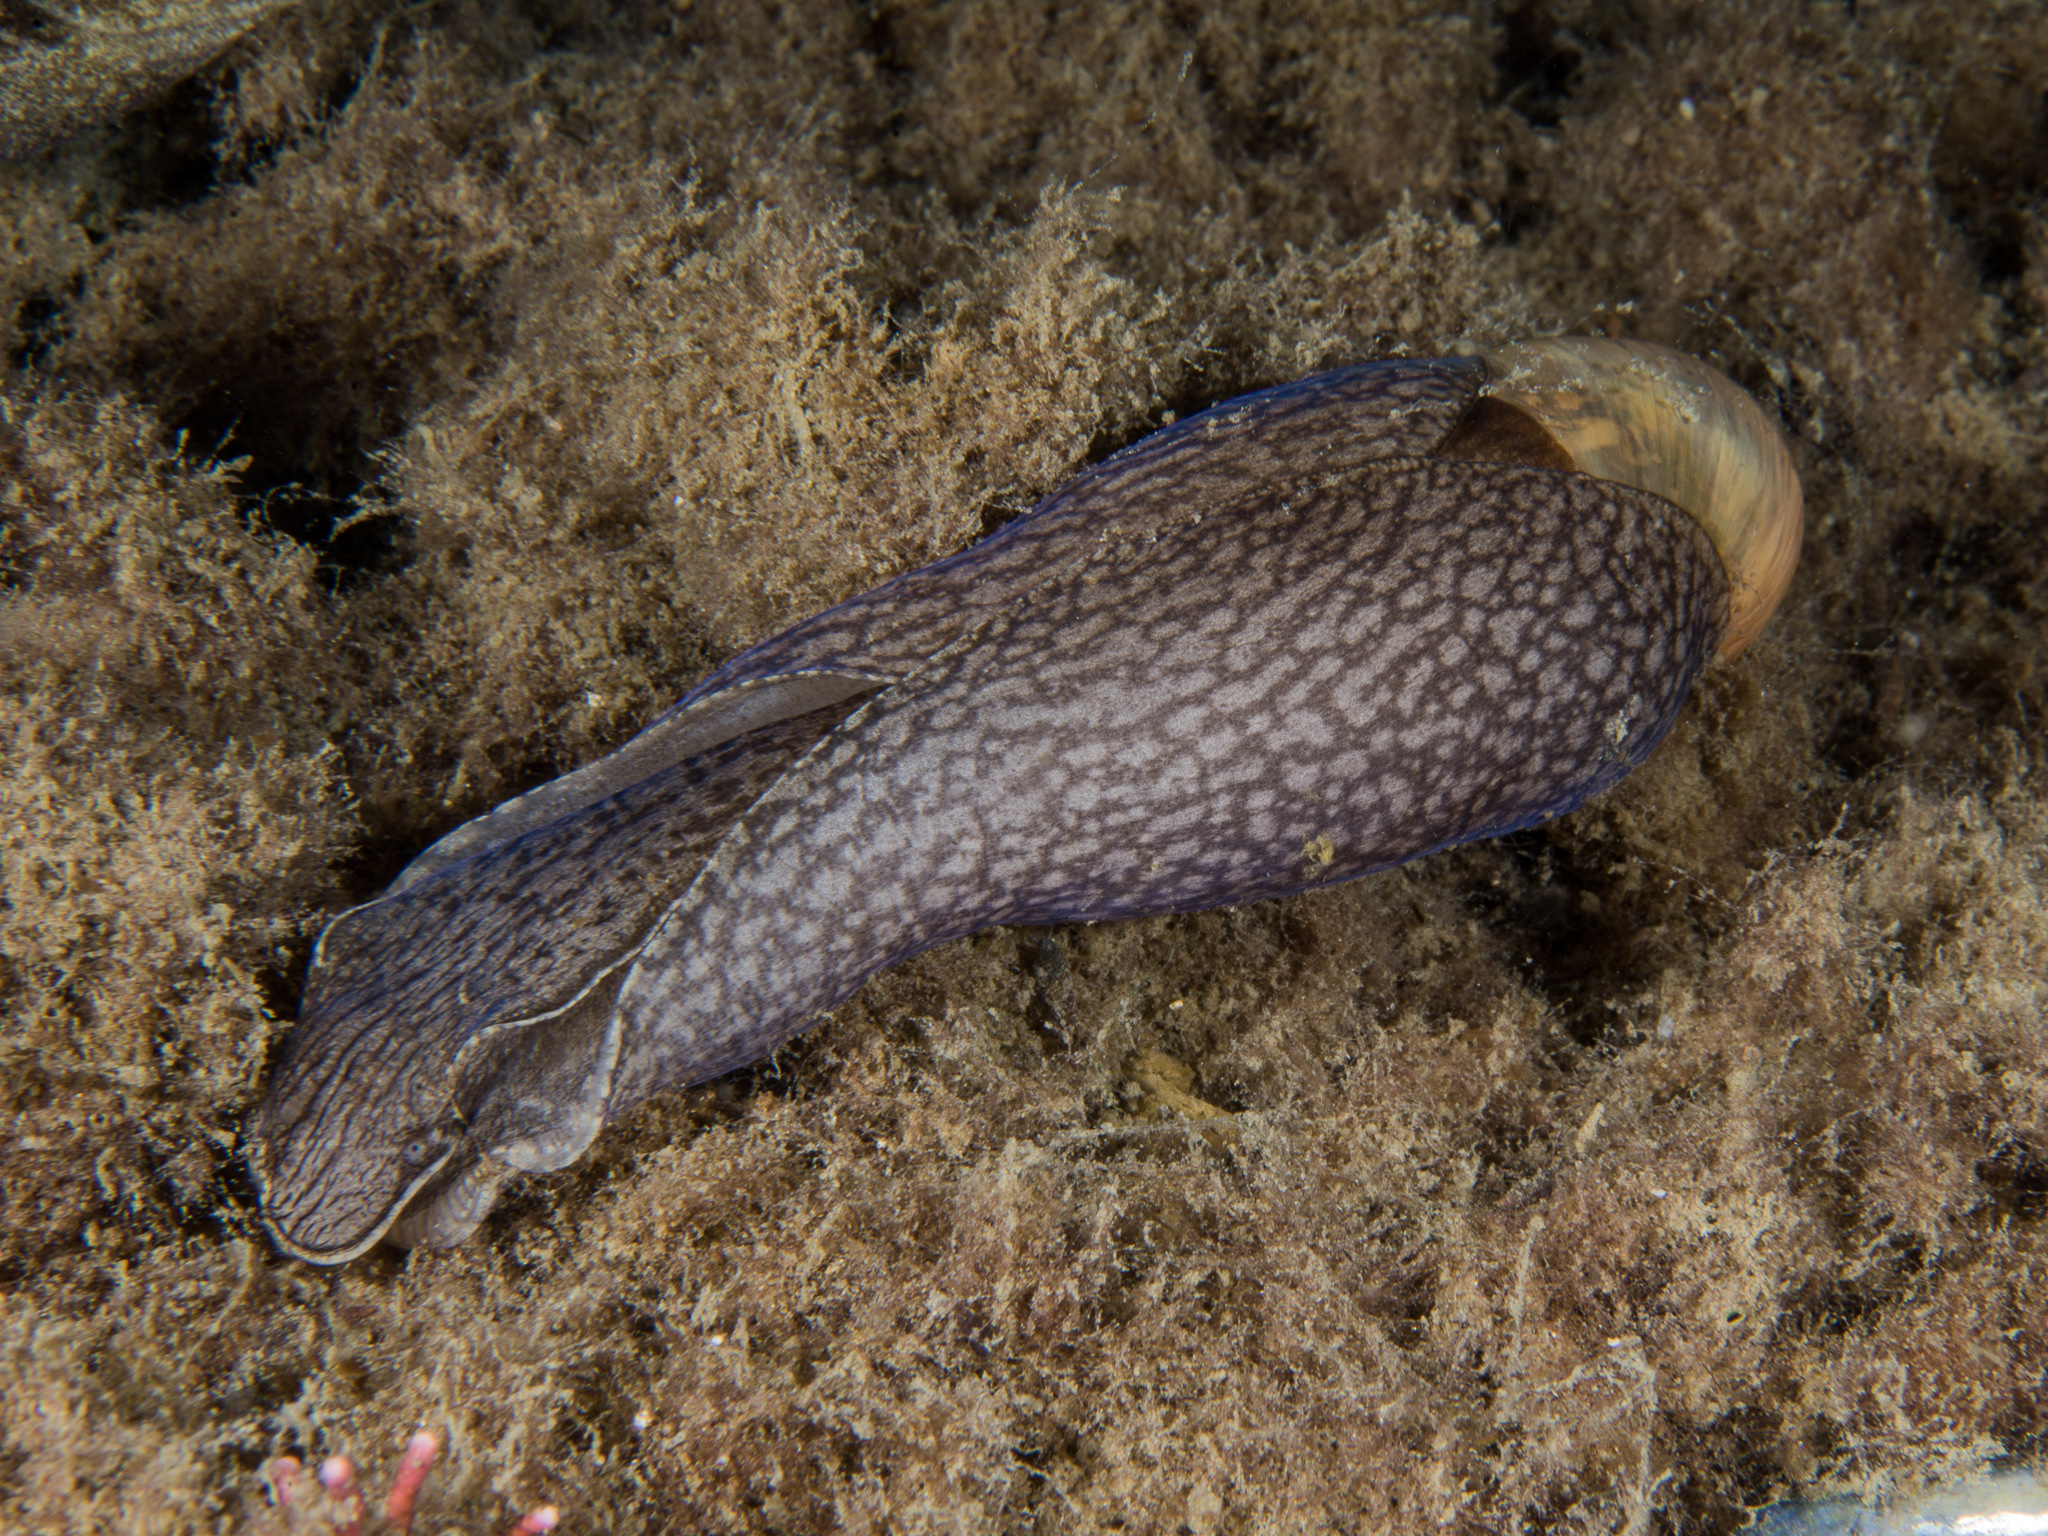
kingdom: Animalia
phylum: Mollusca
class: Gastropoda
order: Aplysiida
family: Akeridae
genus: Akera
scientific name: Akera bullata
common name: Common bubble snail
